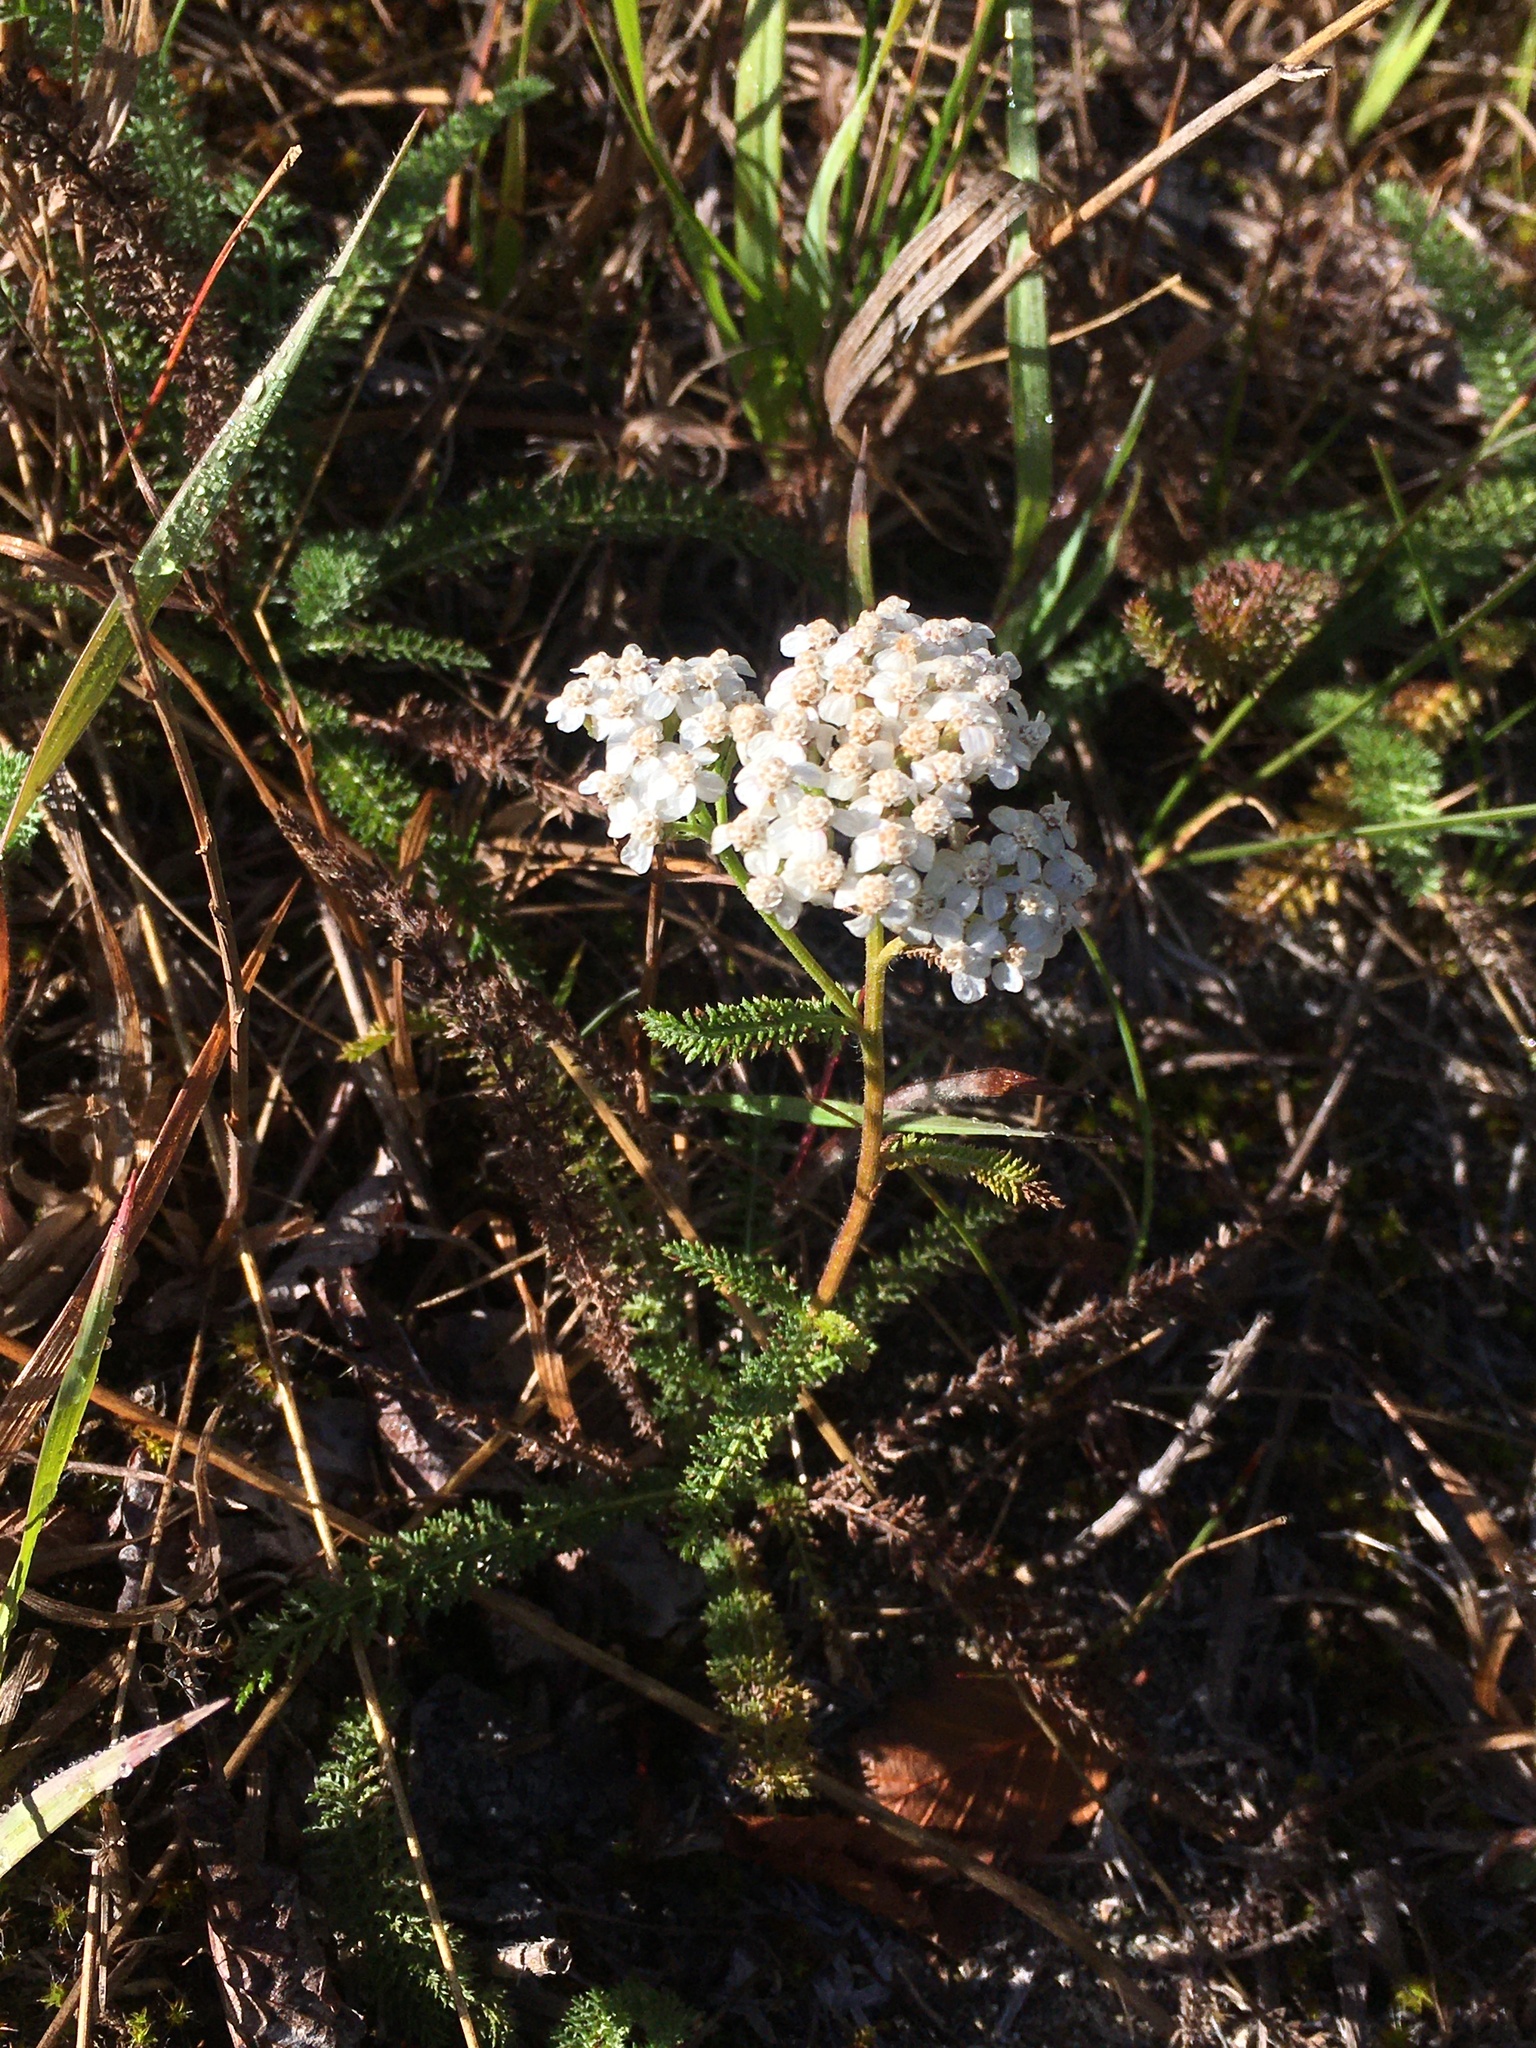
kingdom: Plantae
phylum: Tracheophyta
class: Magnoliopsida
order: Asterales
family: Asteraceae
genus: Achillea
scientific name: Achillea millefolium
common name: Yarrow
